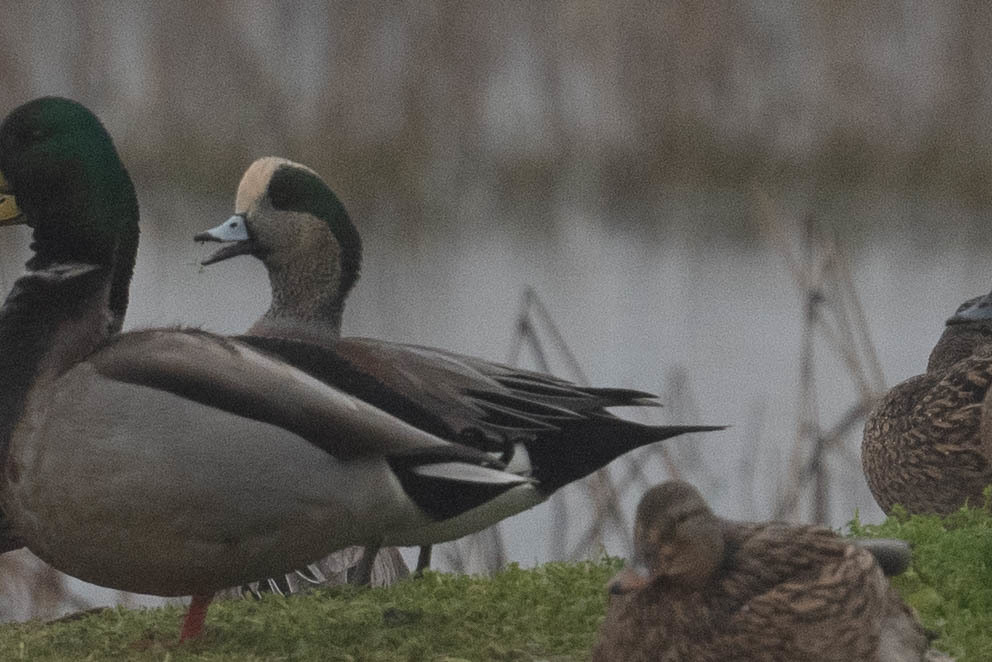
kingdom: Animalia
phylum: Chordata
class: Aves
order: Anseriformes
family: Anatidae
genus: Mareca
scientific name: Mareca americana
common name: American wigeon
